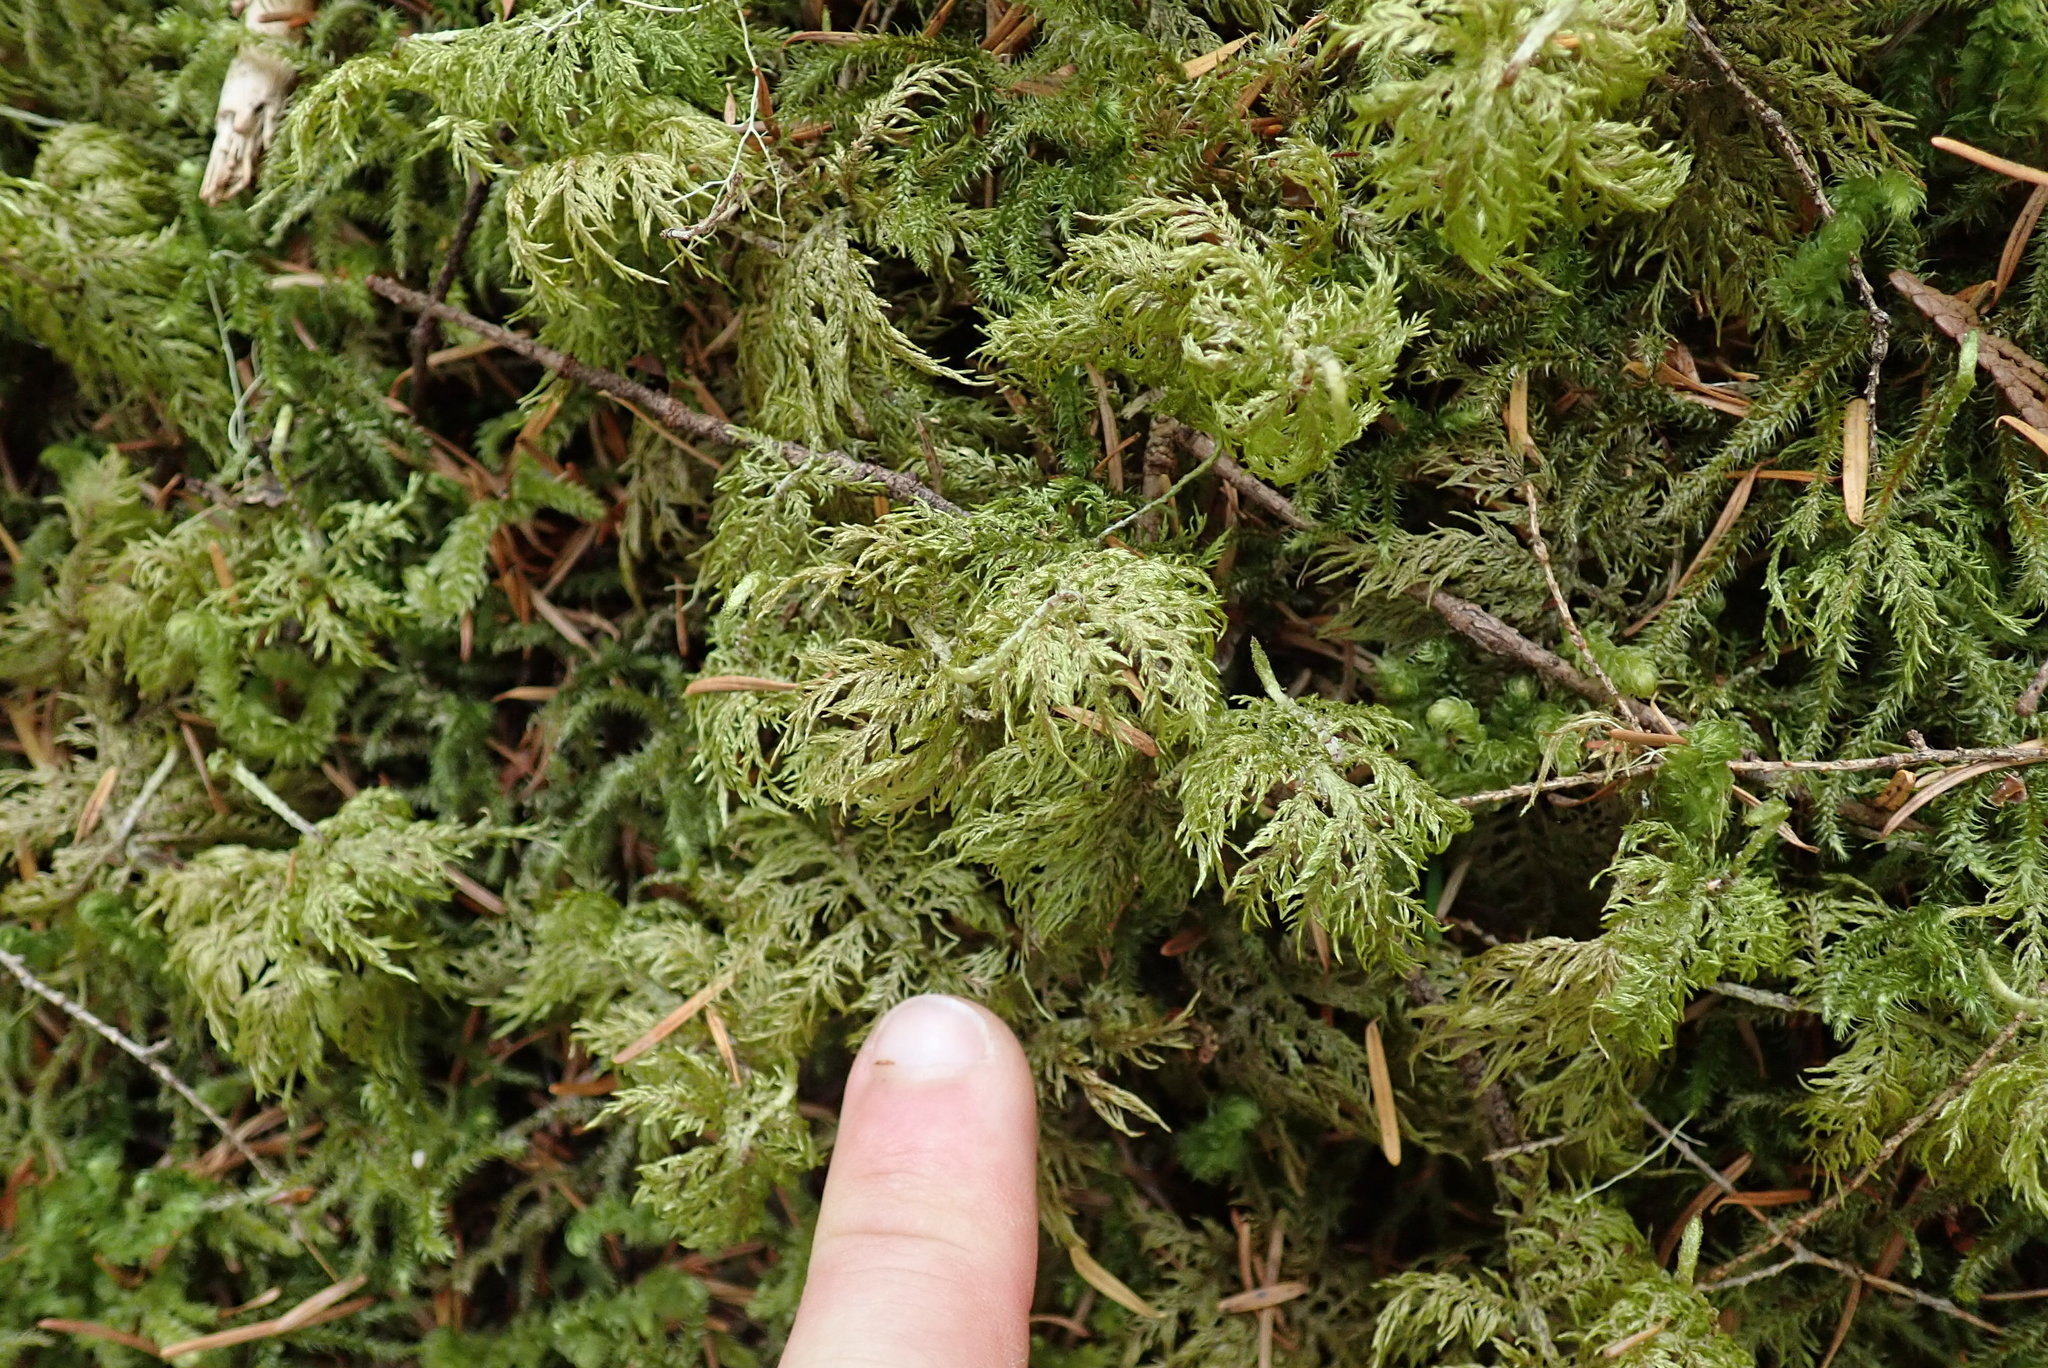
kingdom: Plantae
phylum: Bryophyta
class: Bryopsida
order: Hypnales
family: Hylocomiaceae
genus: Hylocomium
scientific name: Hylocomium splendens
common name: Stairstep moss
